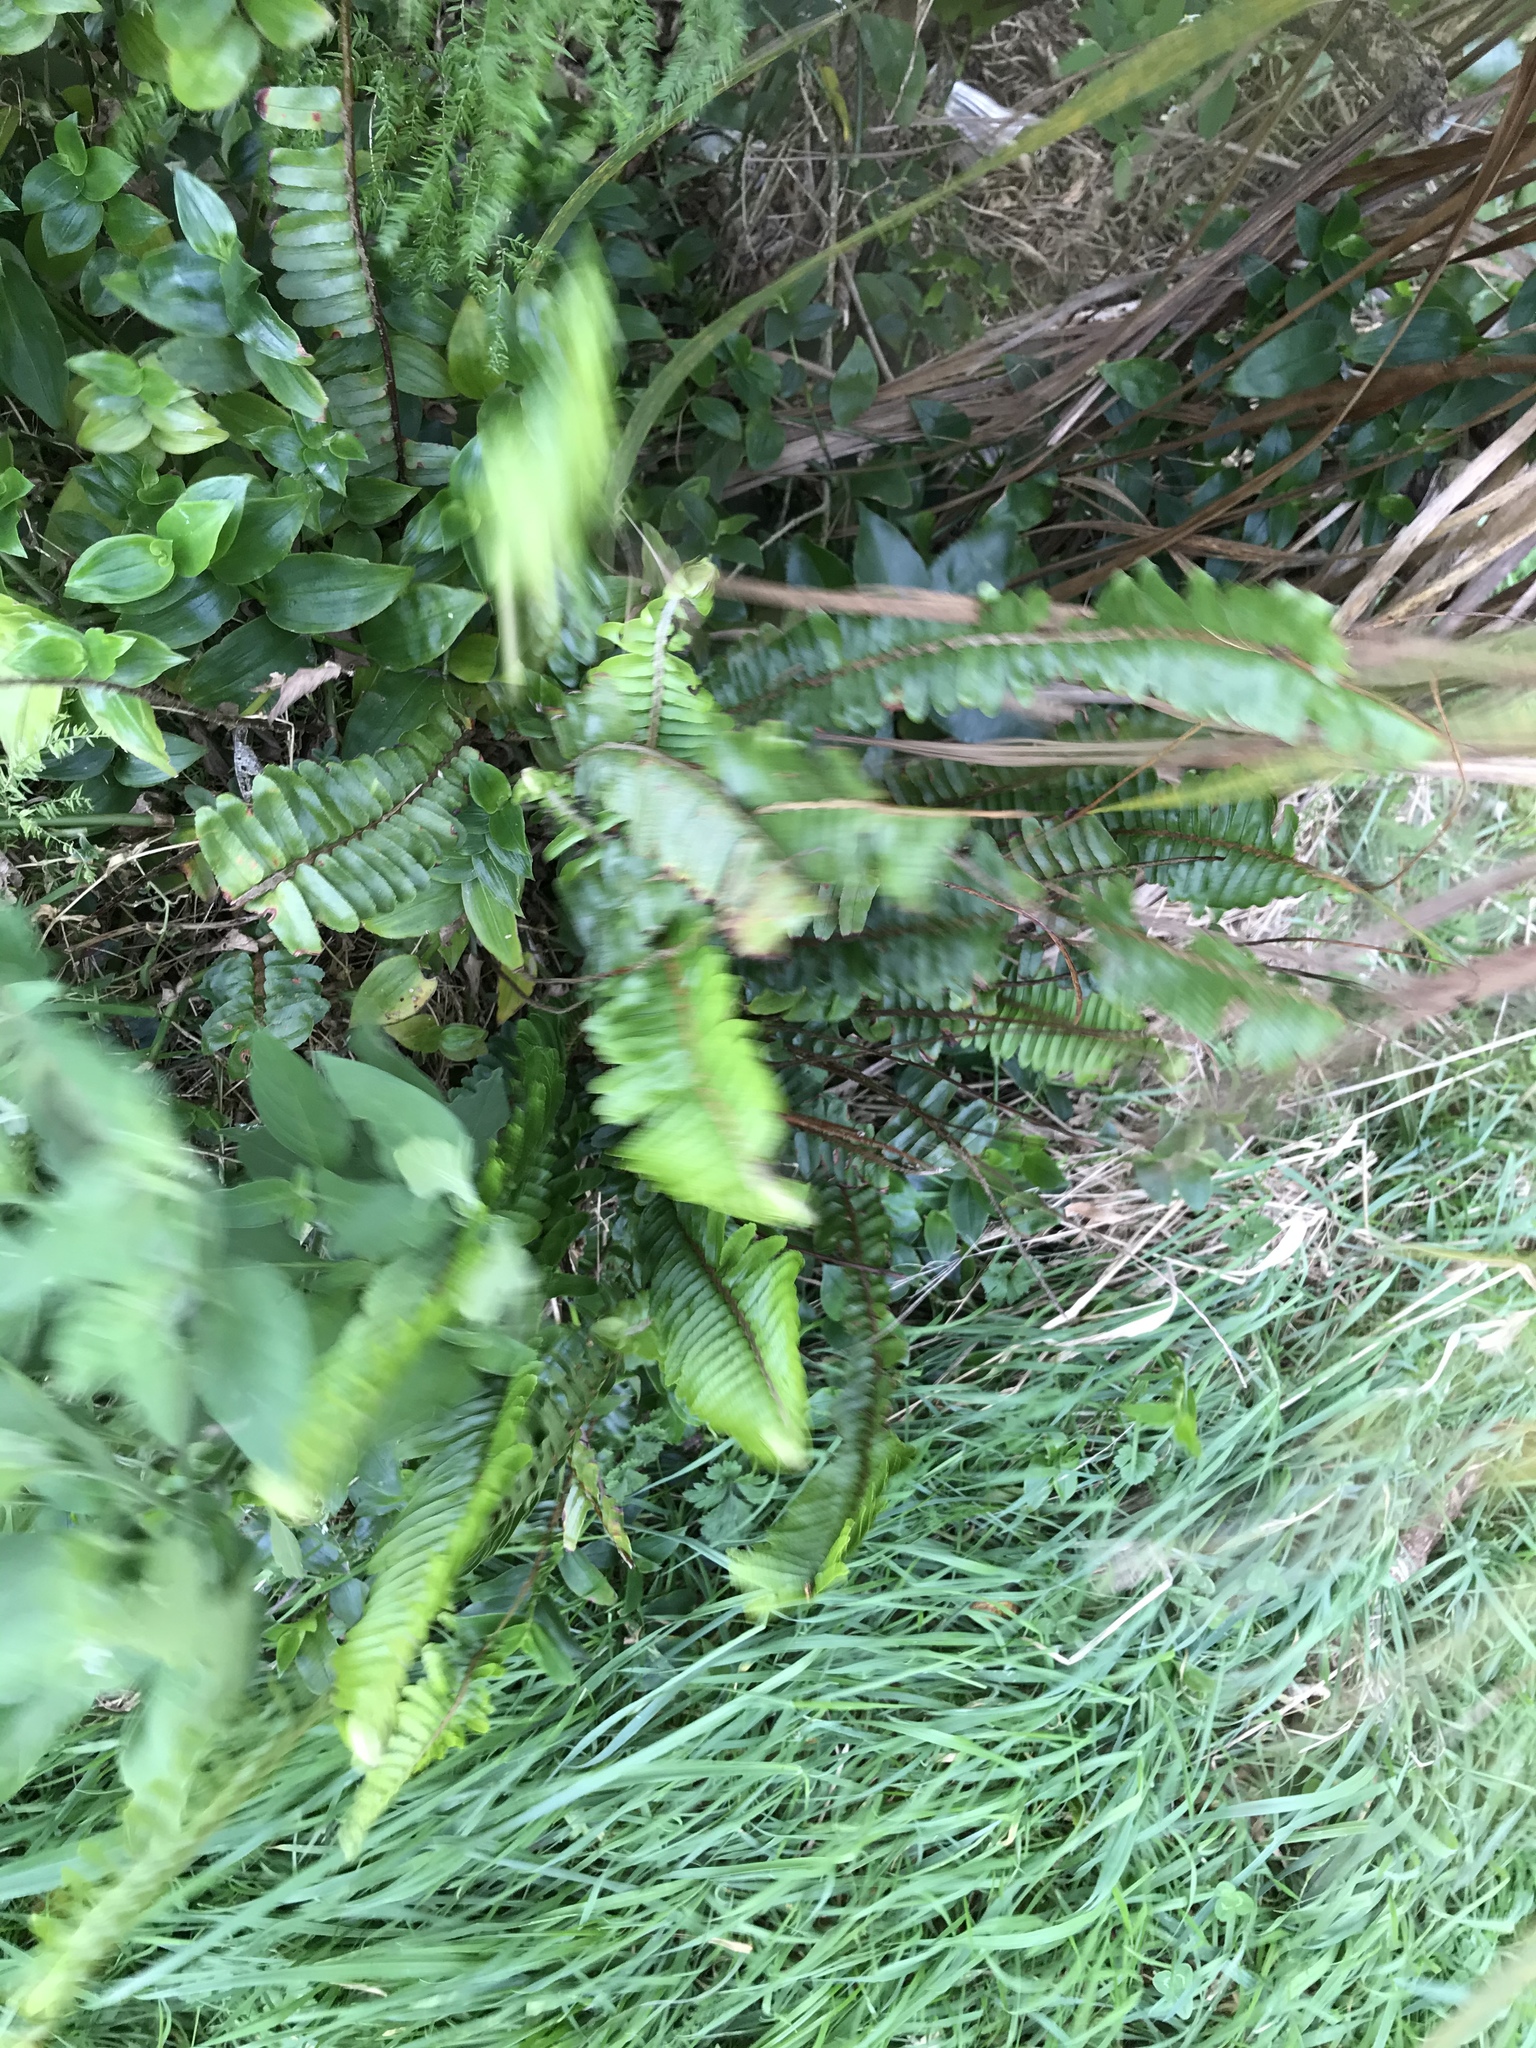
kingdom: Plantae
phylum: Tracheophyta
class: Polypodiopsida
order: Polypodiales
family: Nephrolepidaceae
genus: Nephrolepis
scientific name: Nephrolepis cordifolia
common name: Narrow swordfern
